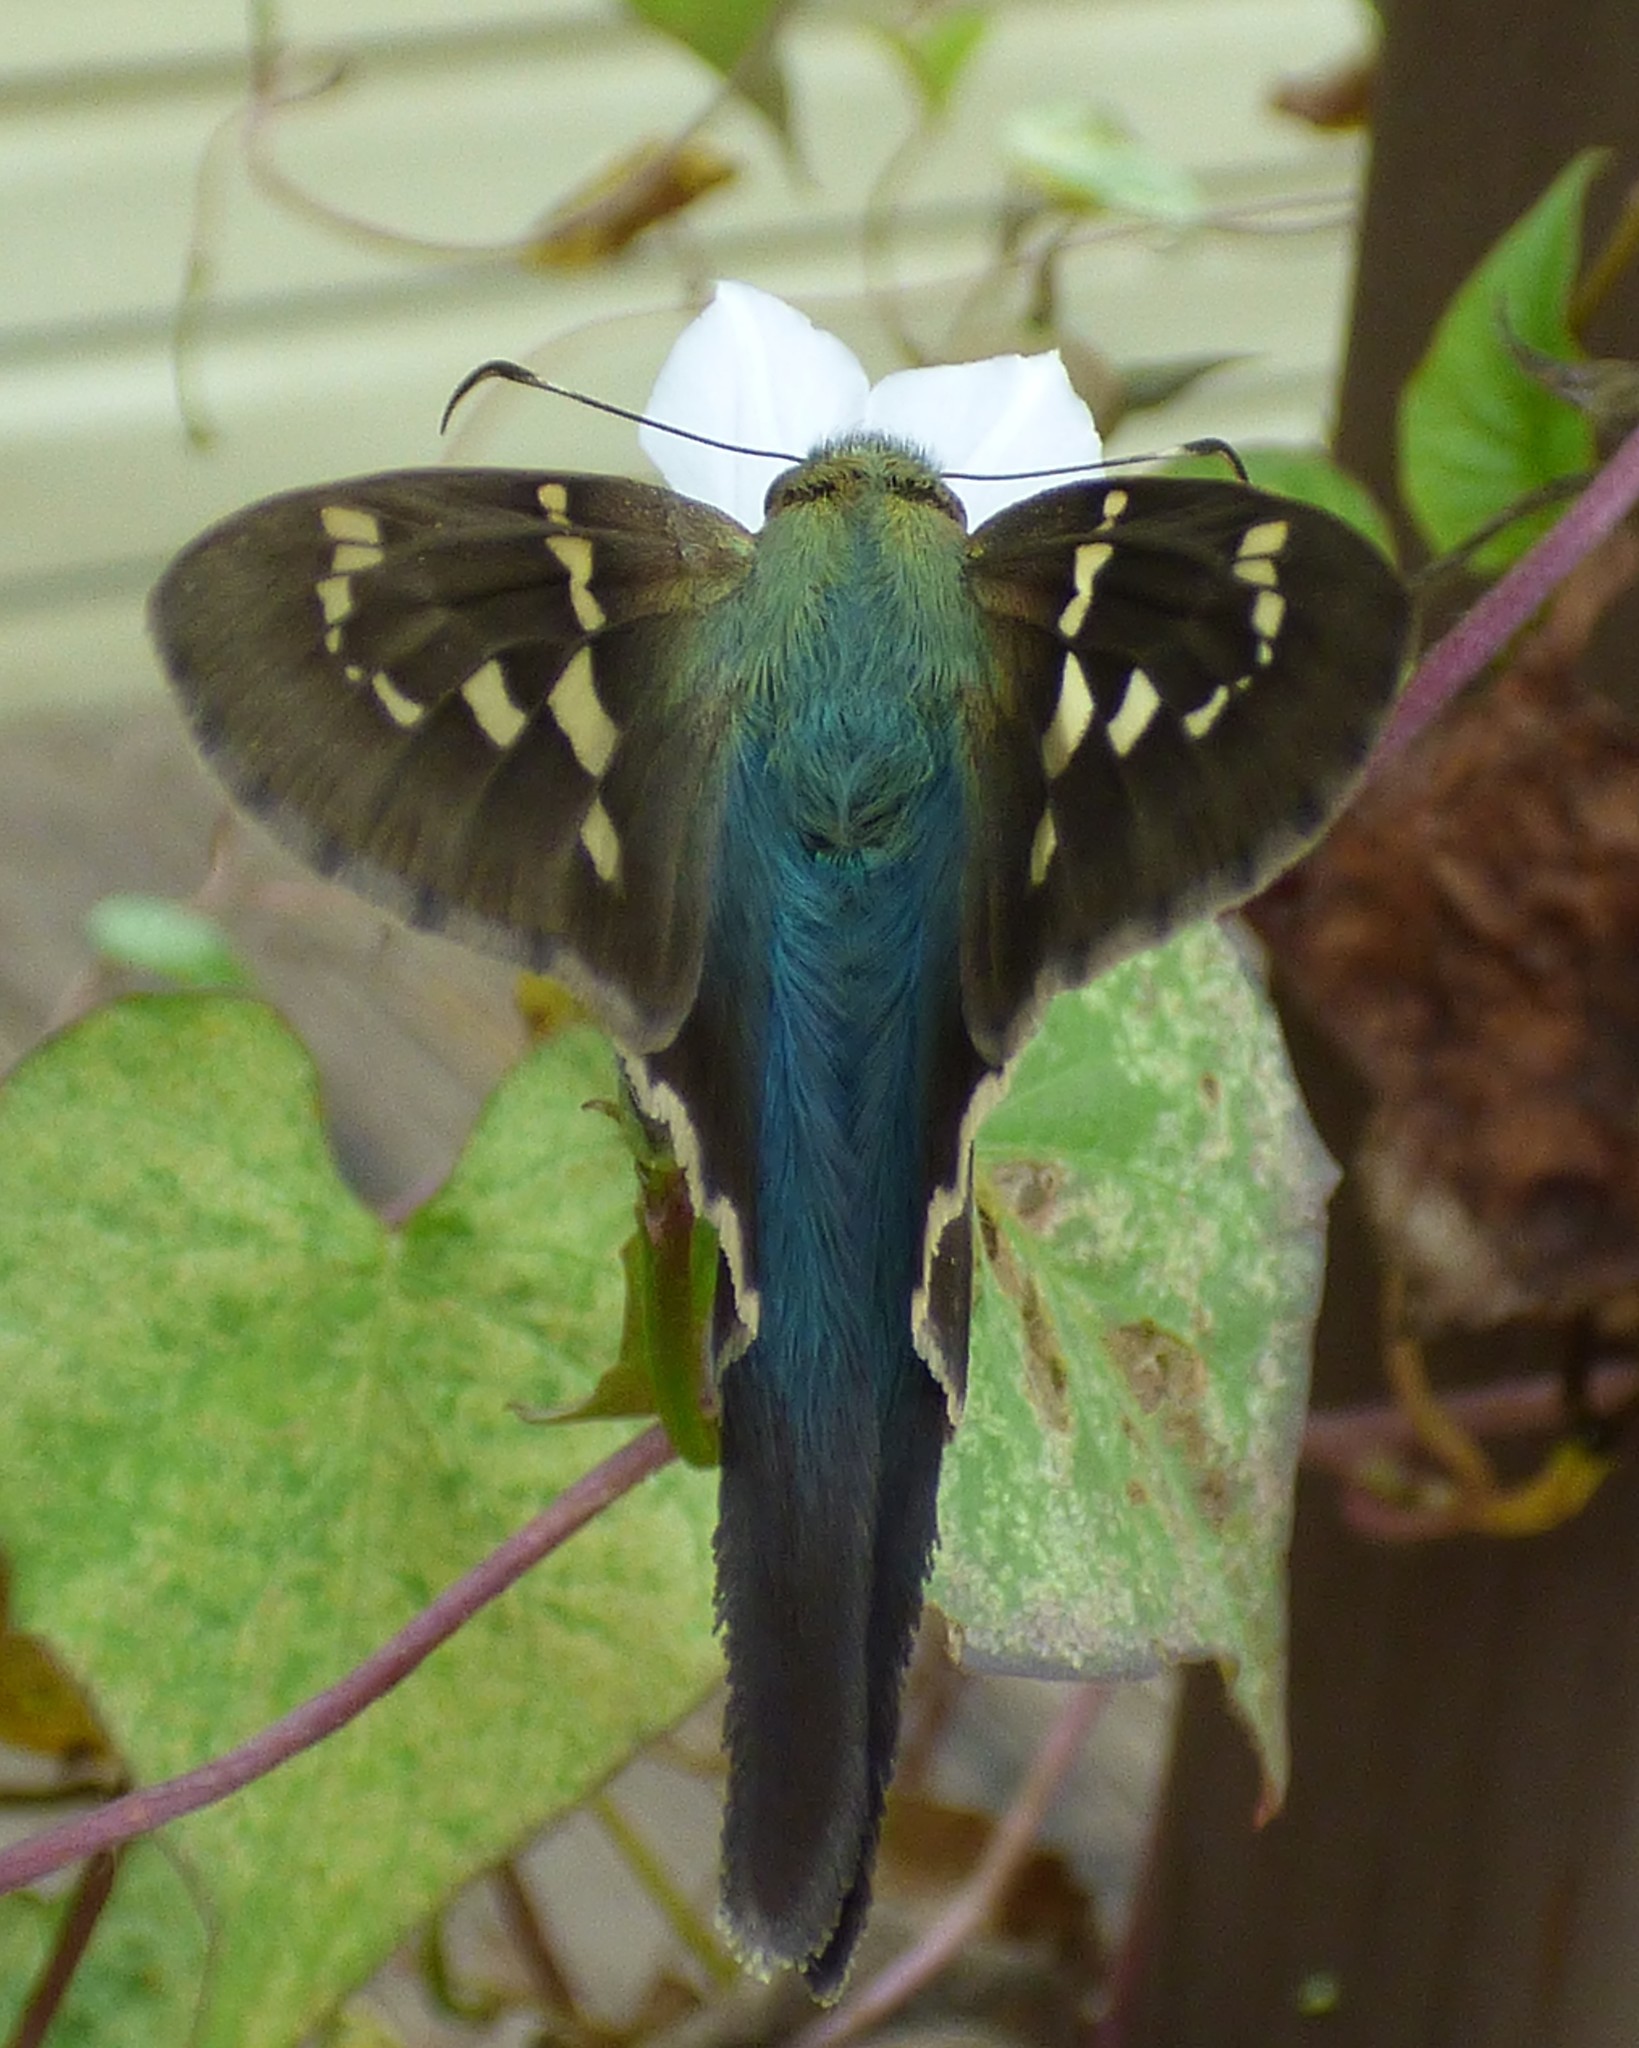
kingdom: Animalia
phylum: Arthropoda
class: Insecta
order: Lepidoptera
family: Hesperiidae
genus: Urbanus
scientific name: Urbanus proteus
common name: Long-tailed skipper
